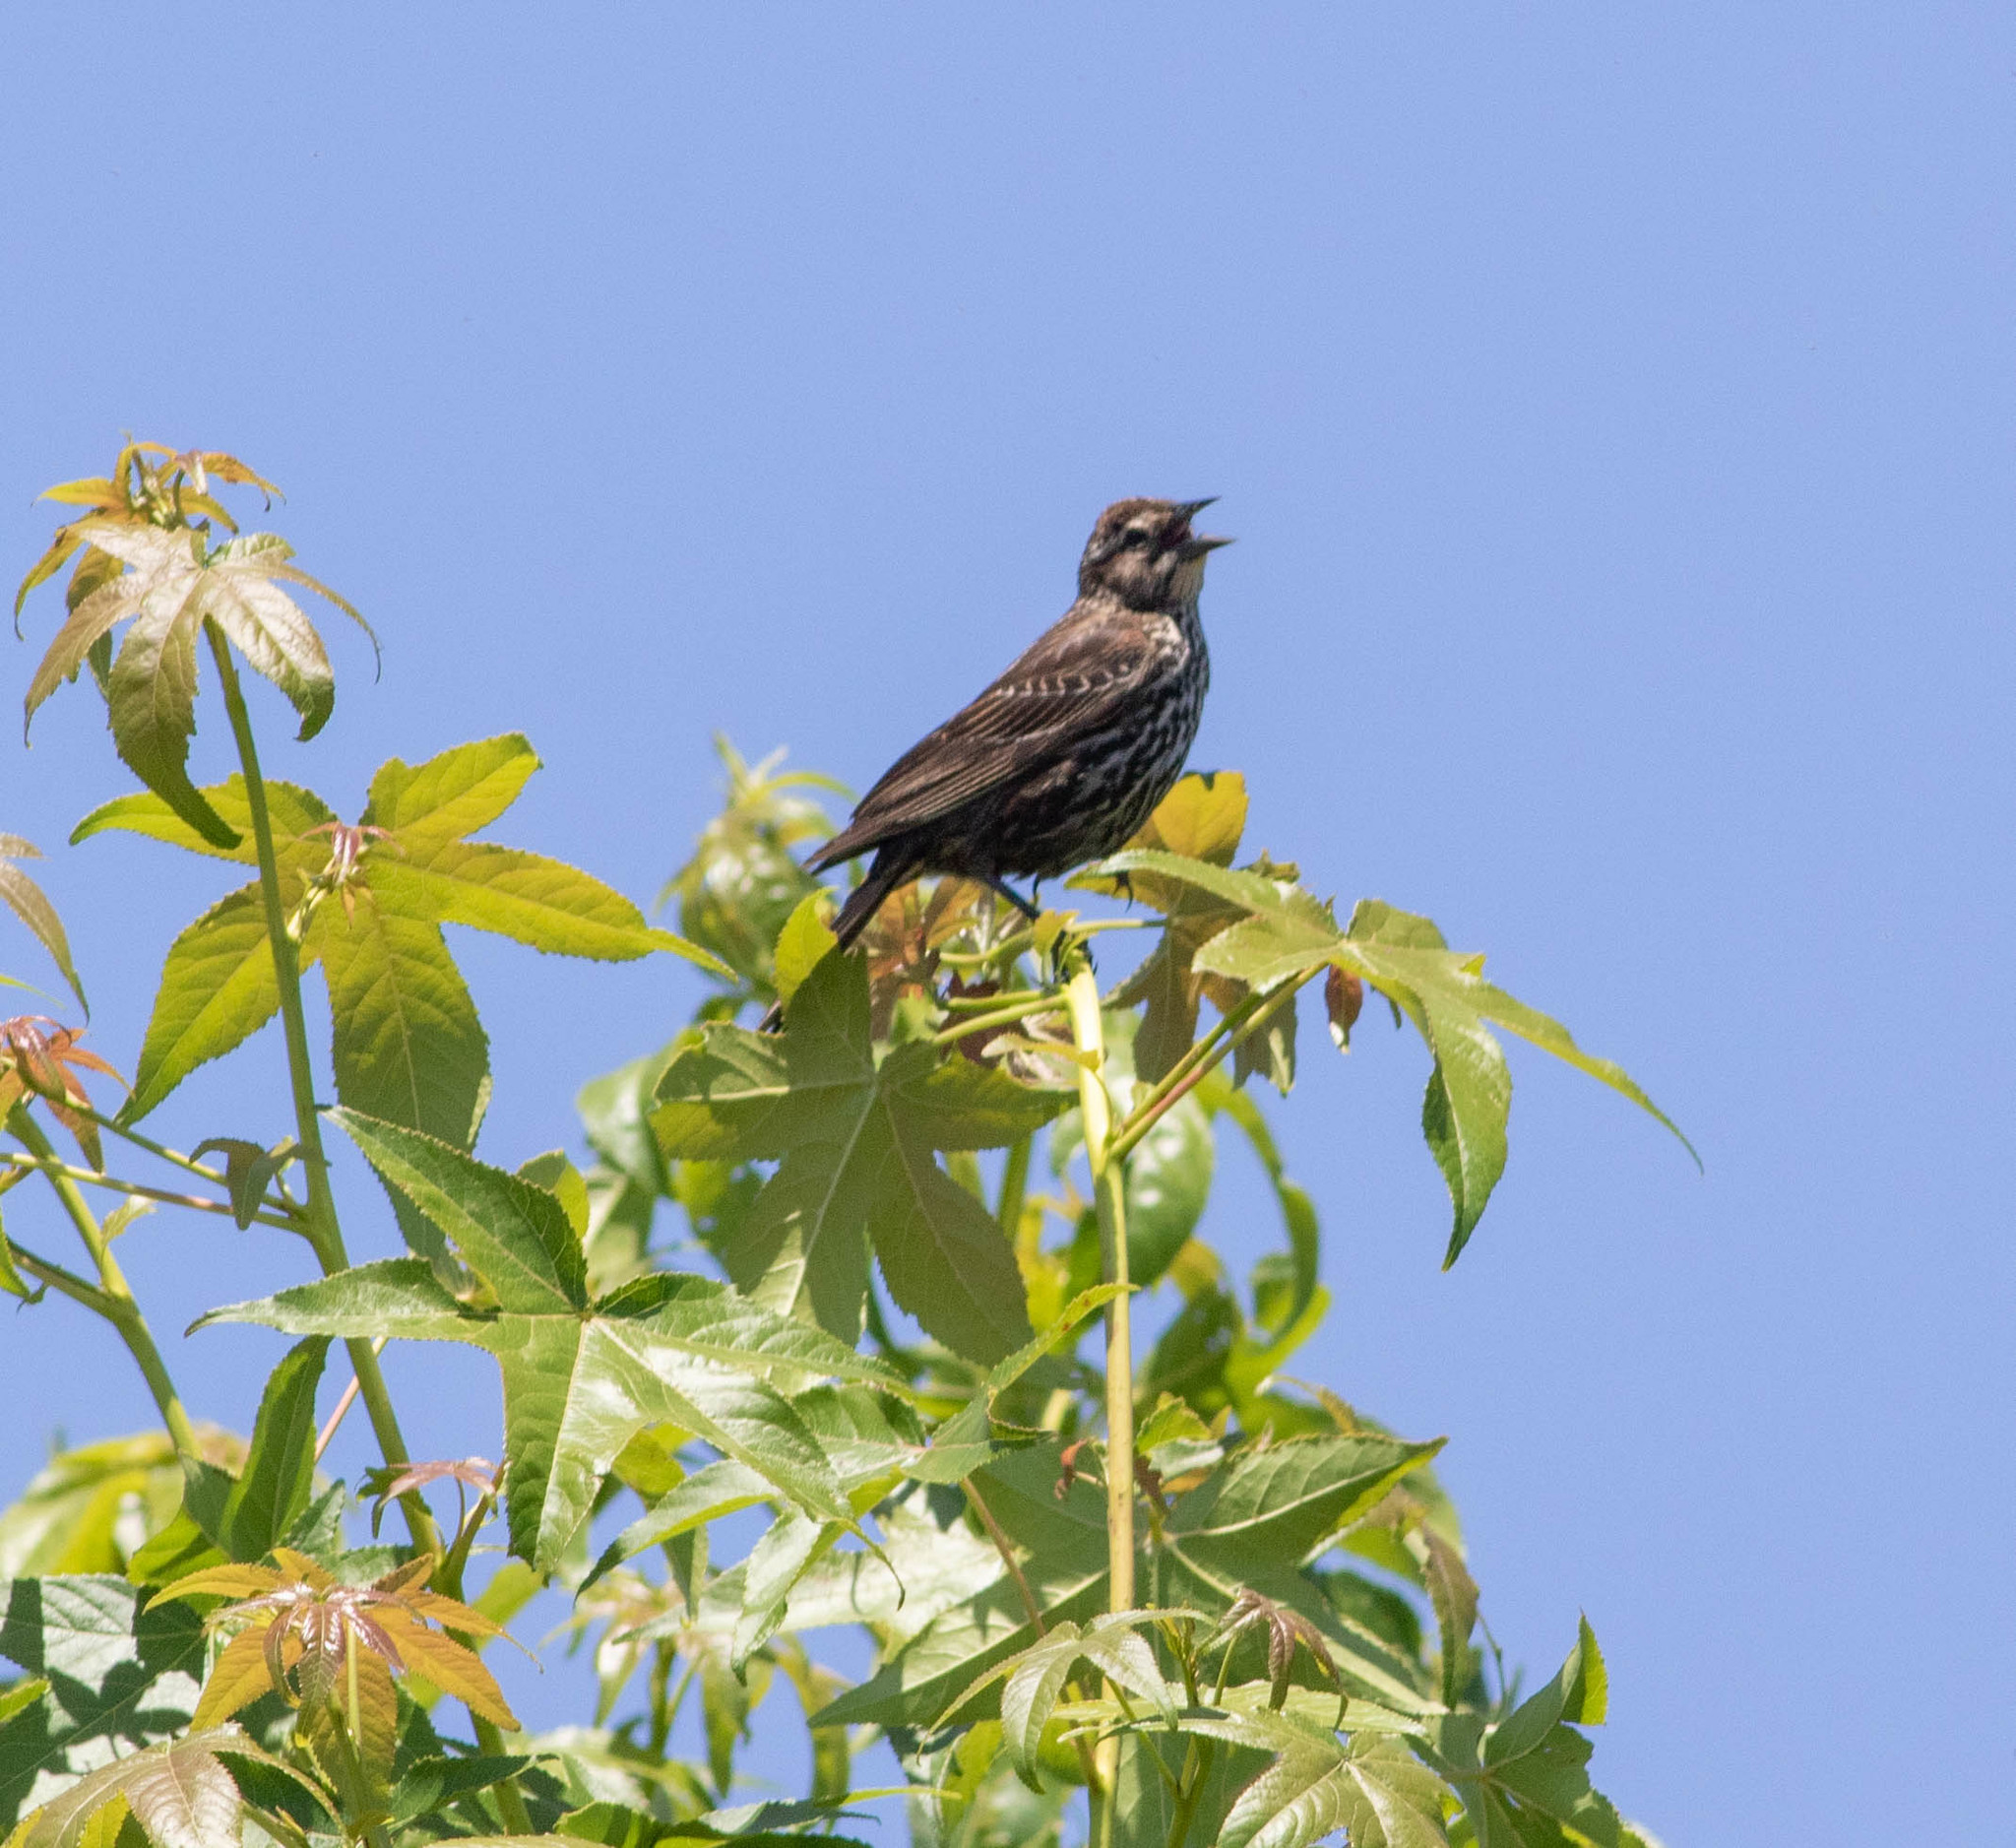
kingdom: Animalia
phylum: Chordata
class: Aves
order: Passeriformes
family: Icteridae
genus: Agelaius
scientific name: Agelaius phoeniceus
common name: Red-winged blackbird
